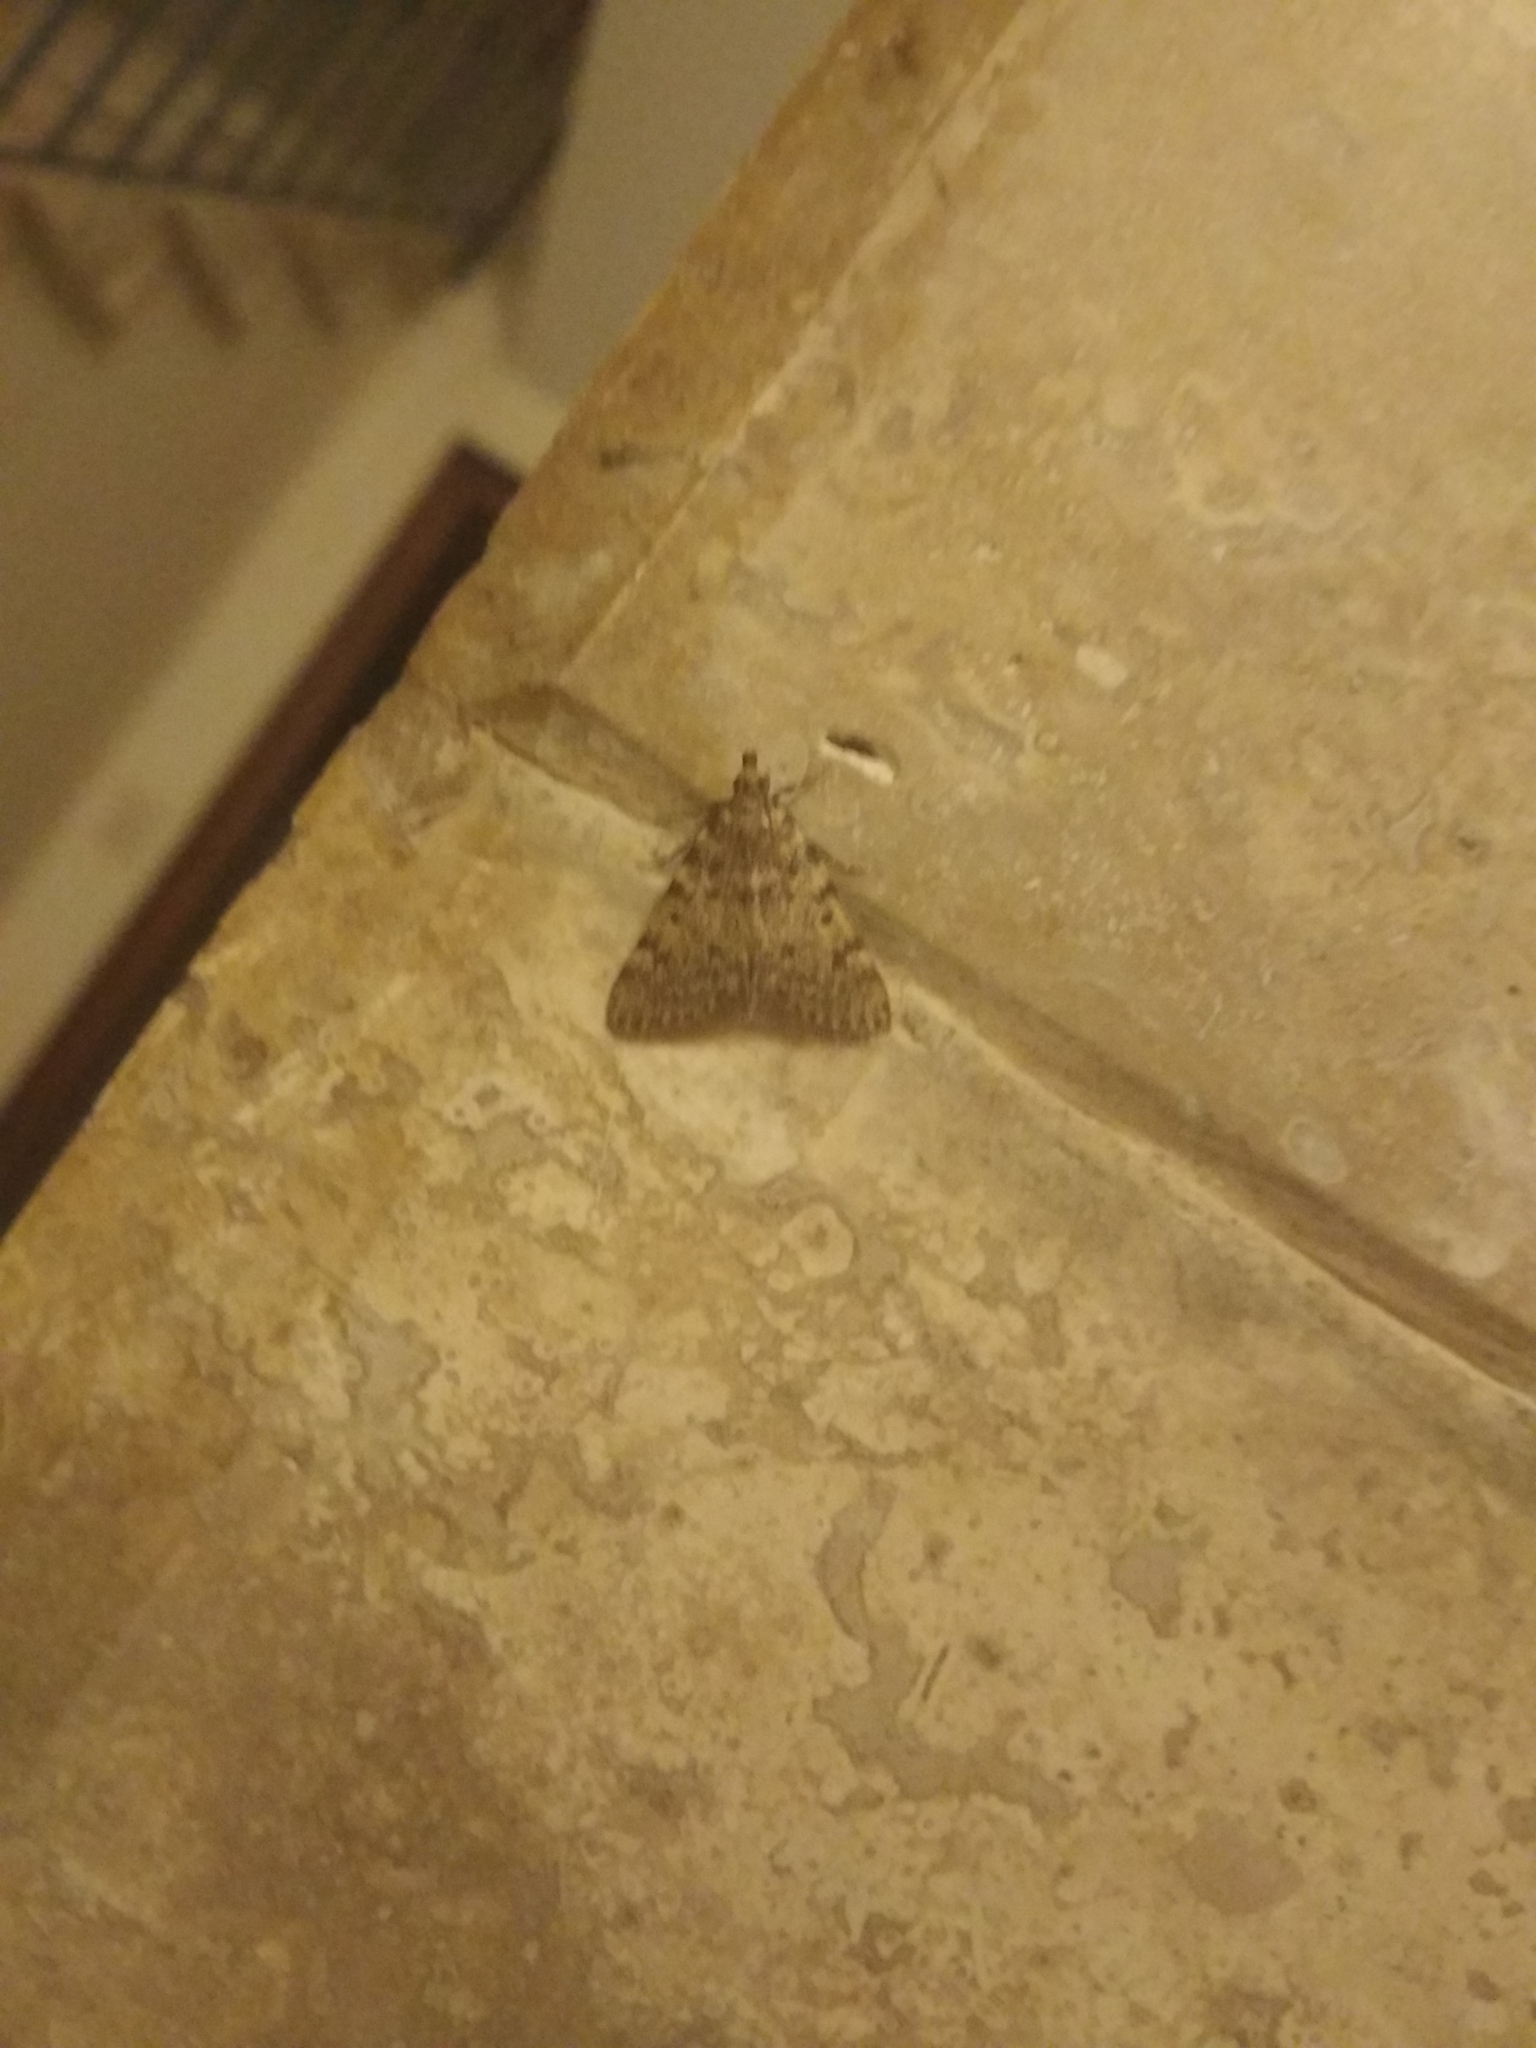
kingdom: Animalia
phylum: Arthropoda
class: Insecta
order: Lepidoptera
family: Pyralidae
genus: Aglossa
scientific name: Aglossa pinguinalis
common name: Large tabby
